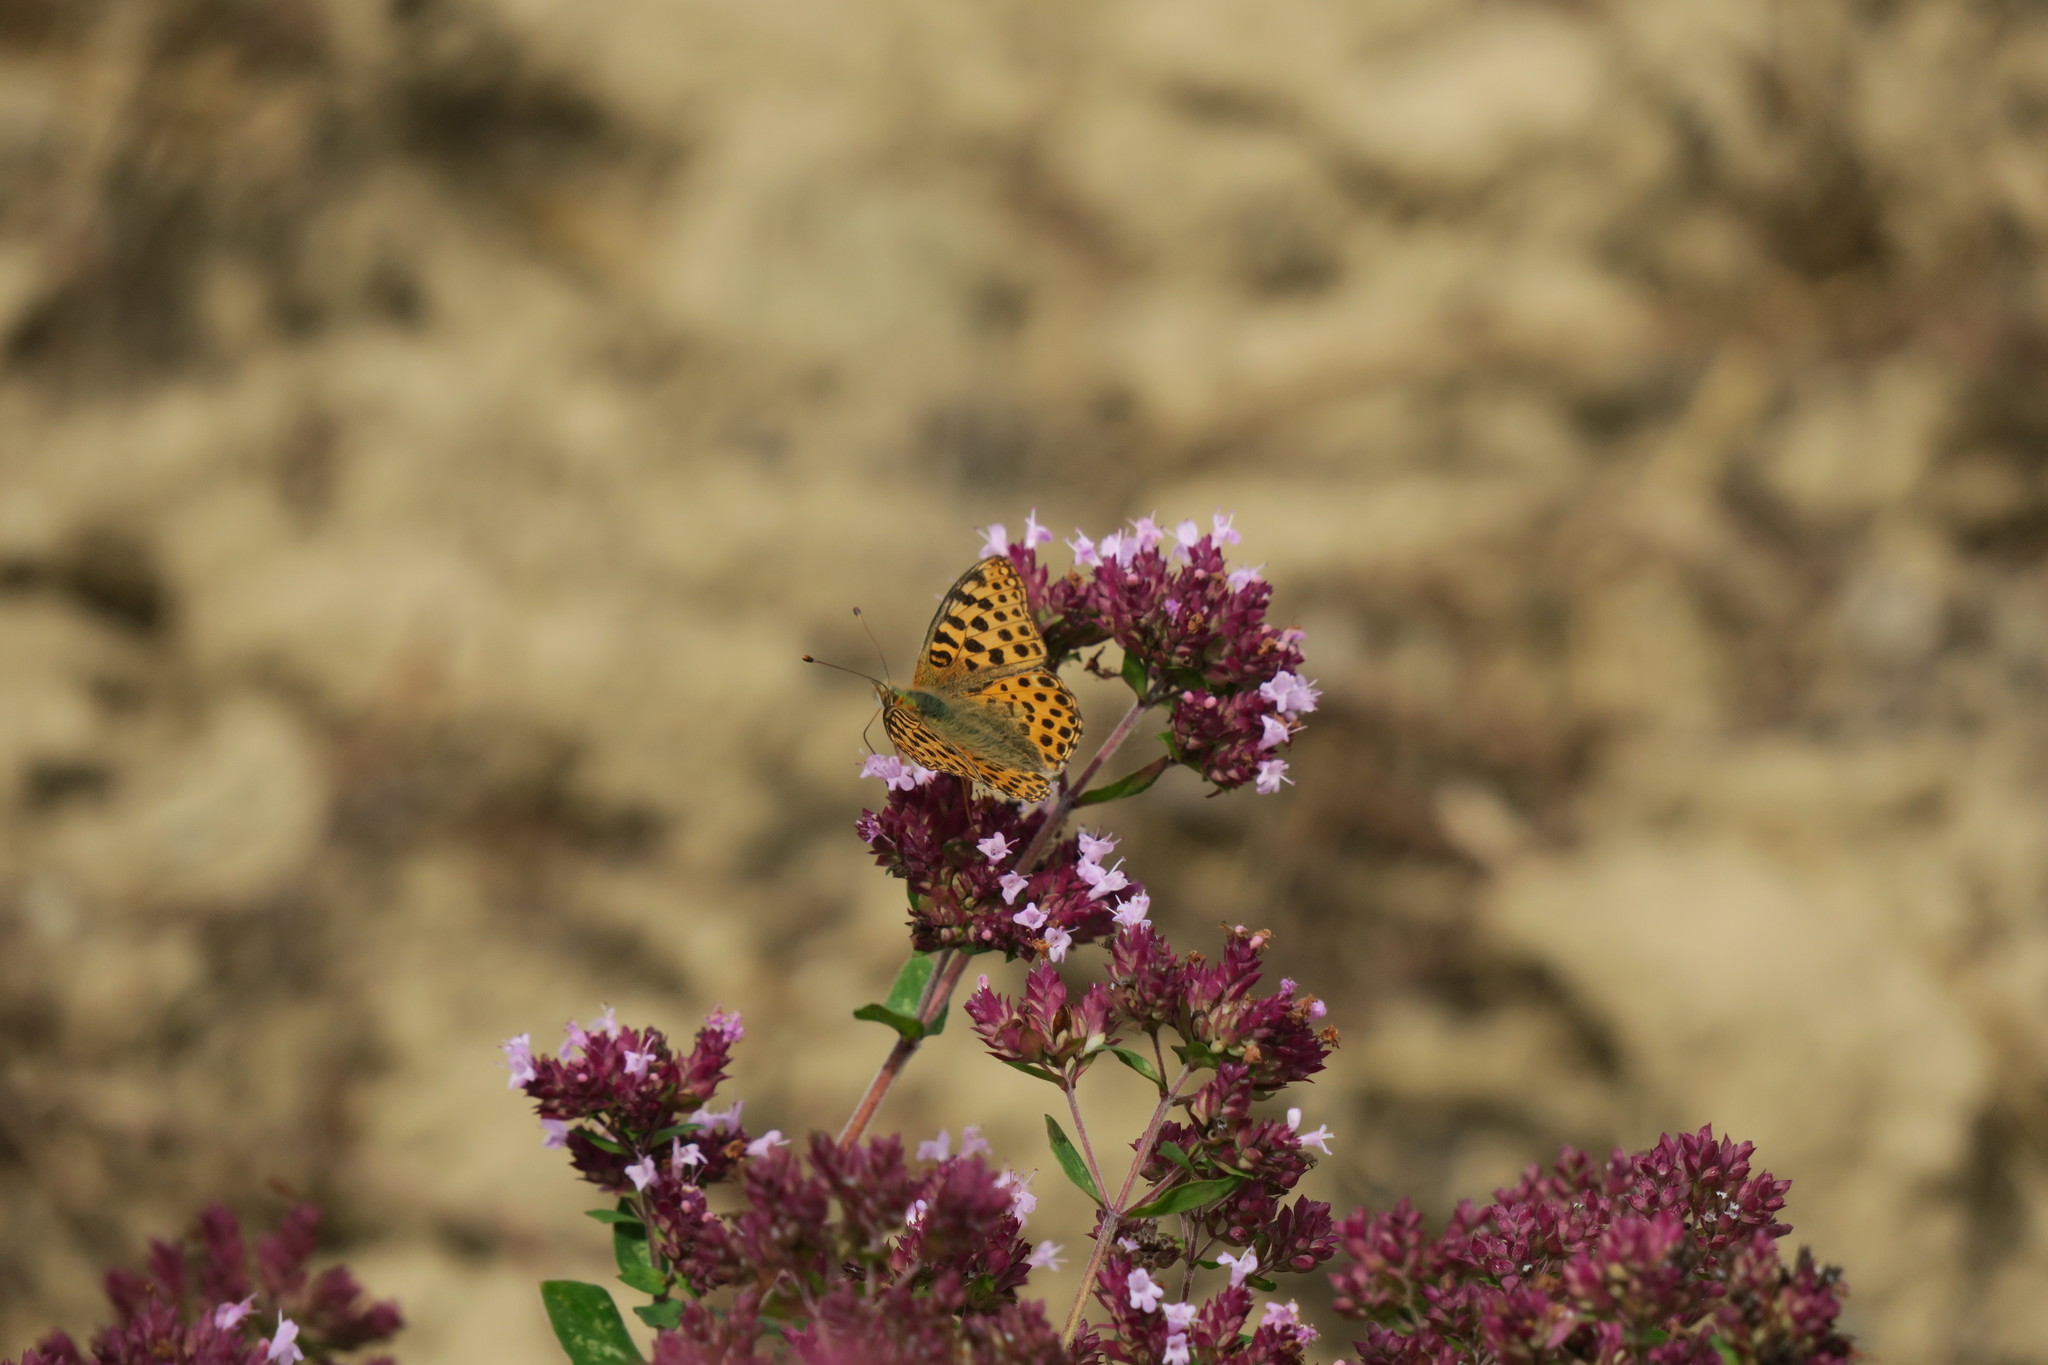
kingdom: Animalia
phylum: Arthropoda
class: Insecta
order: Lepidoptera
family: Nymphalidae
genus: Issoria
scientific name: Issoria lathonia
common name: Queen of spain fritillary
